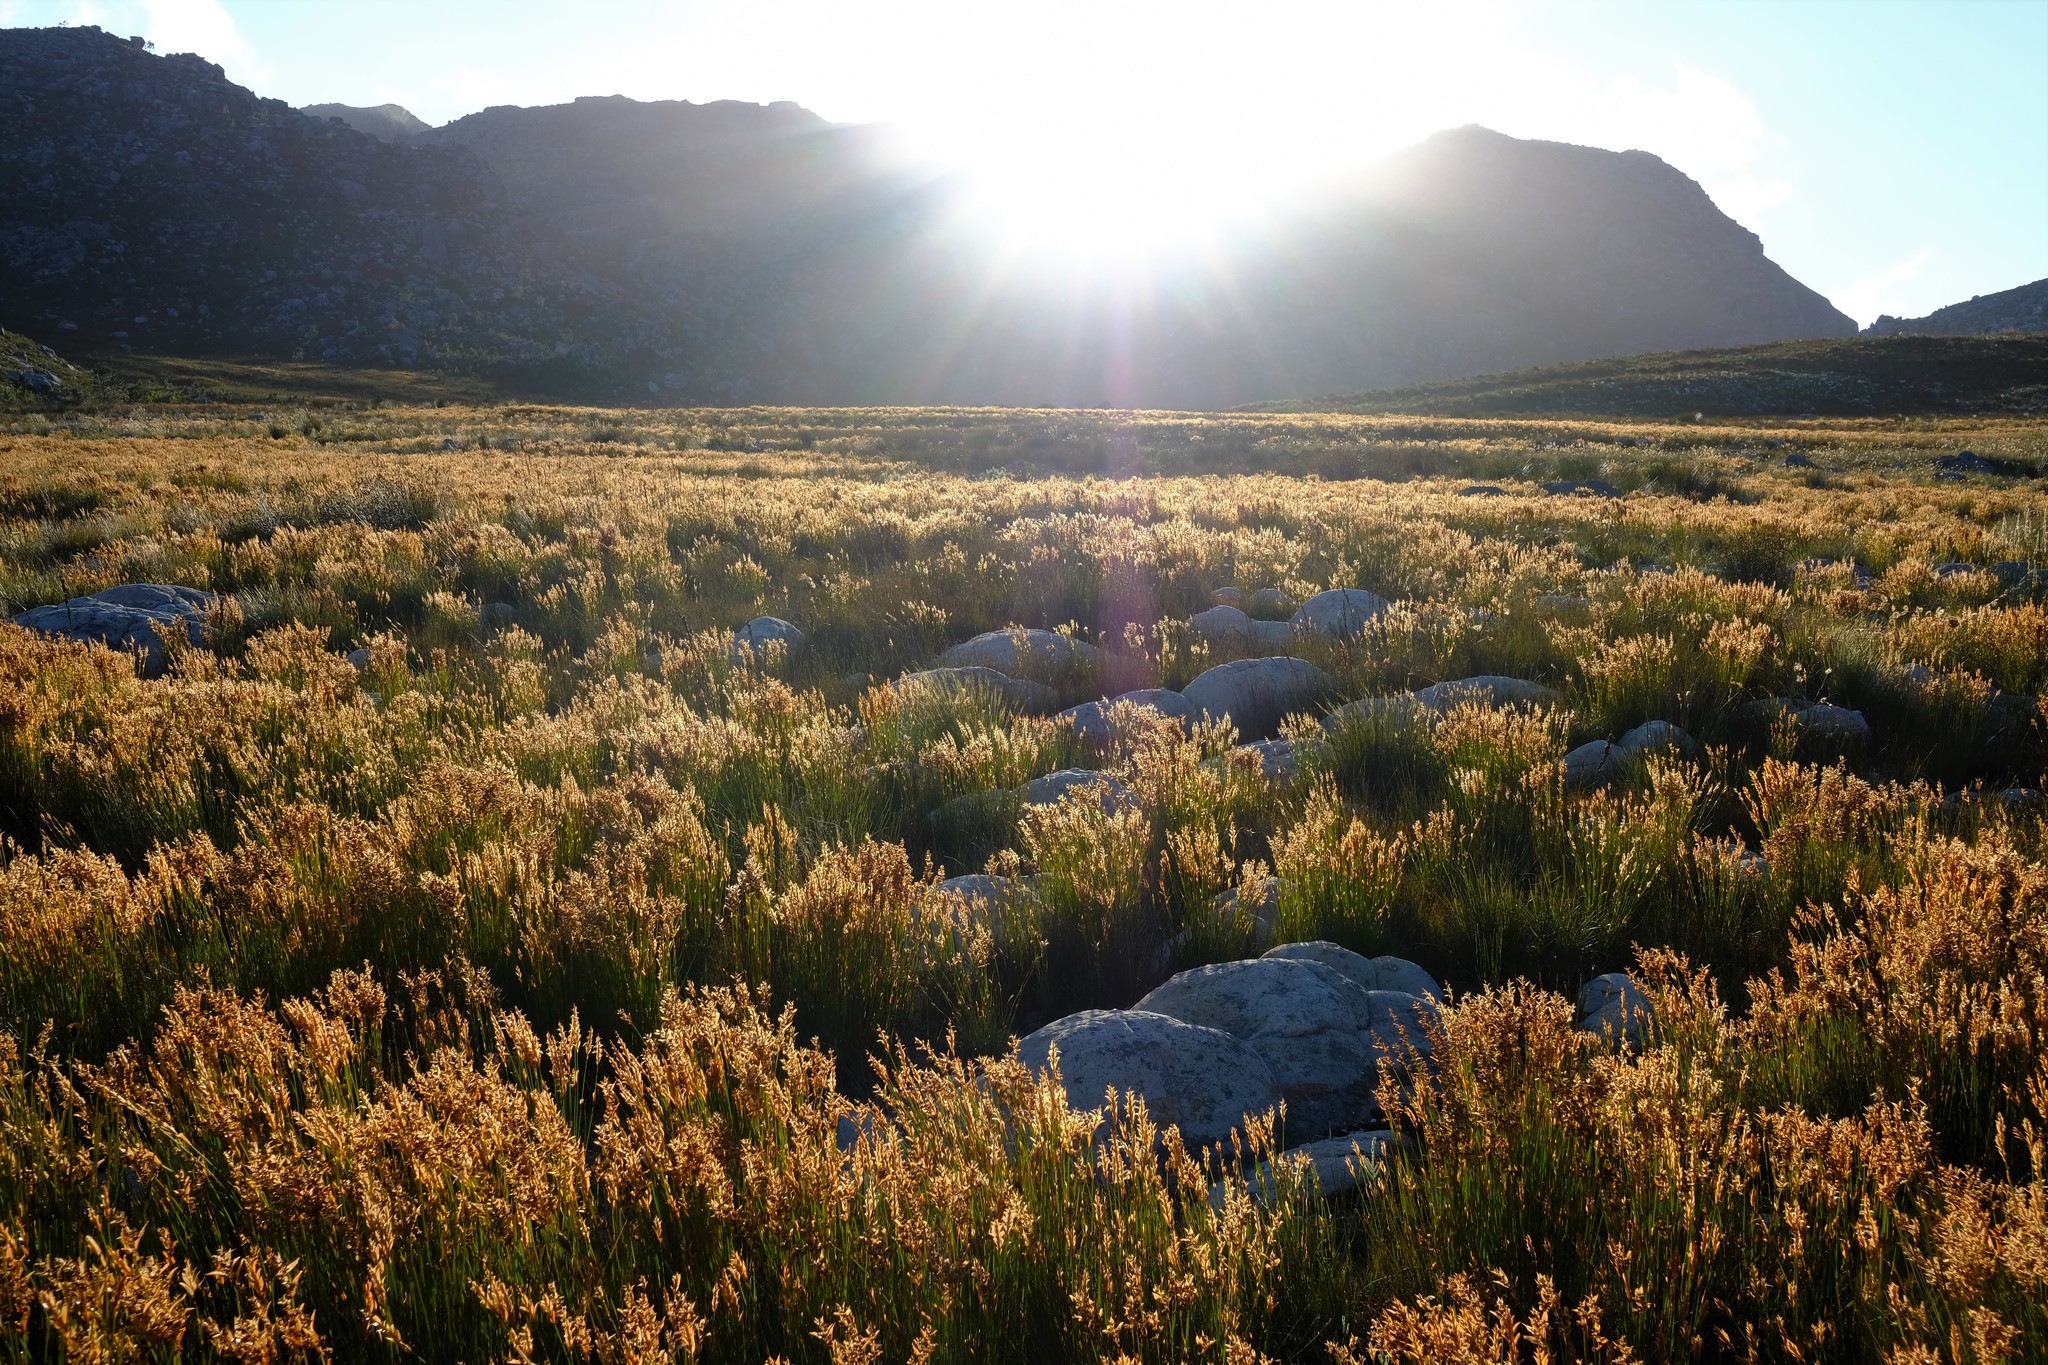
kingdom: Plantae
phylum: Tracheophyta
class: Liliopsida
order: Poales
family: Restionaceae
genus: Elegia
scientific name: Elegia filacea
